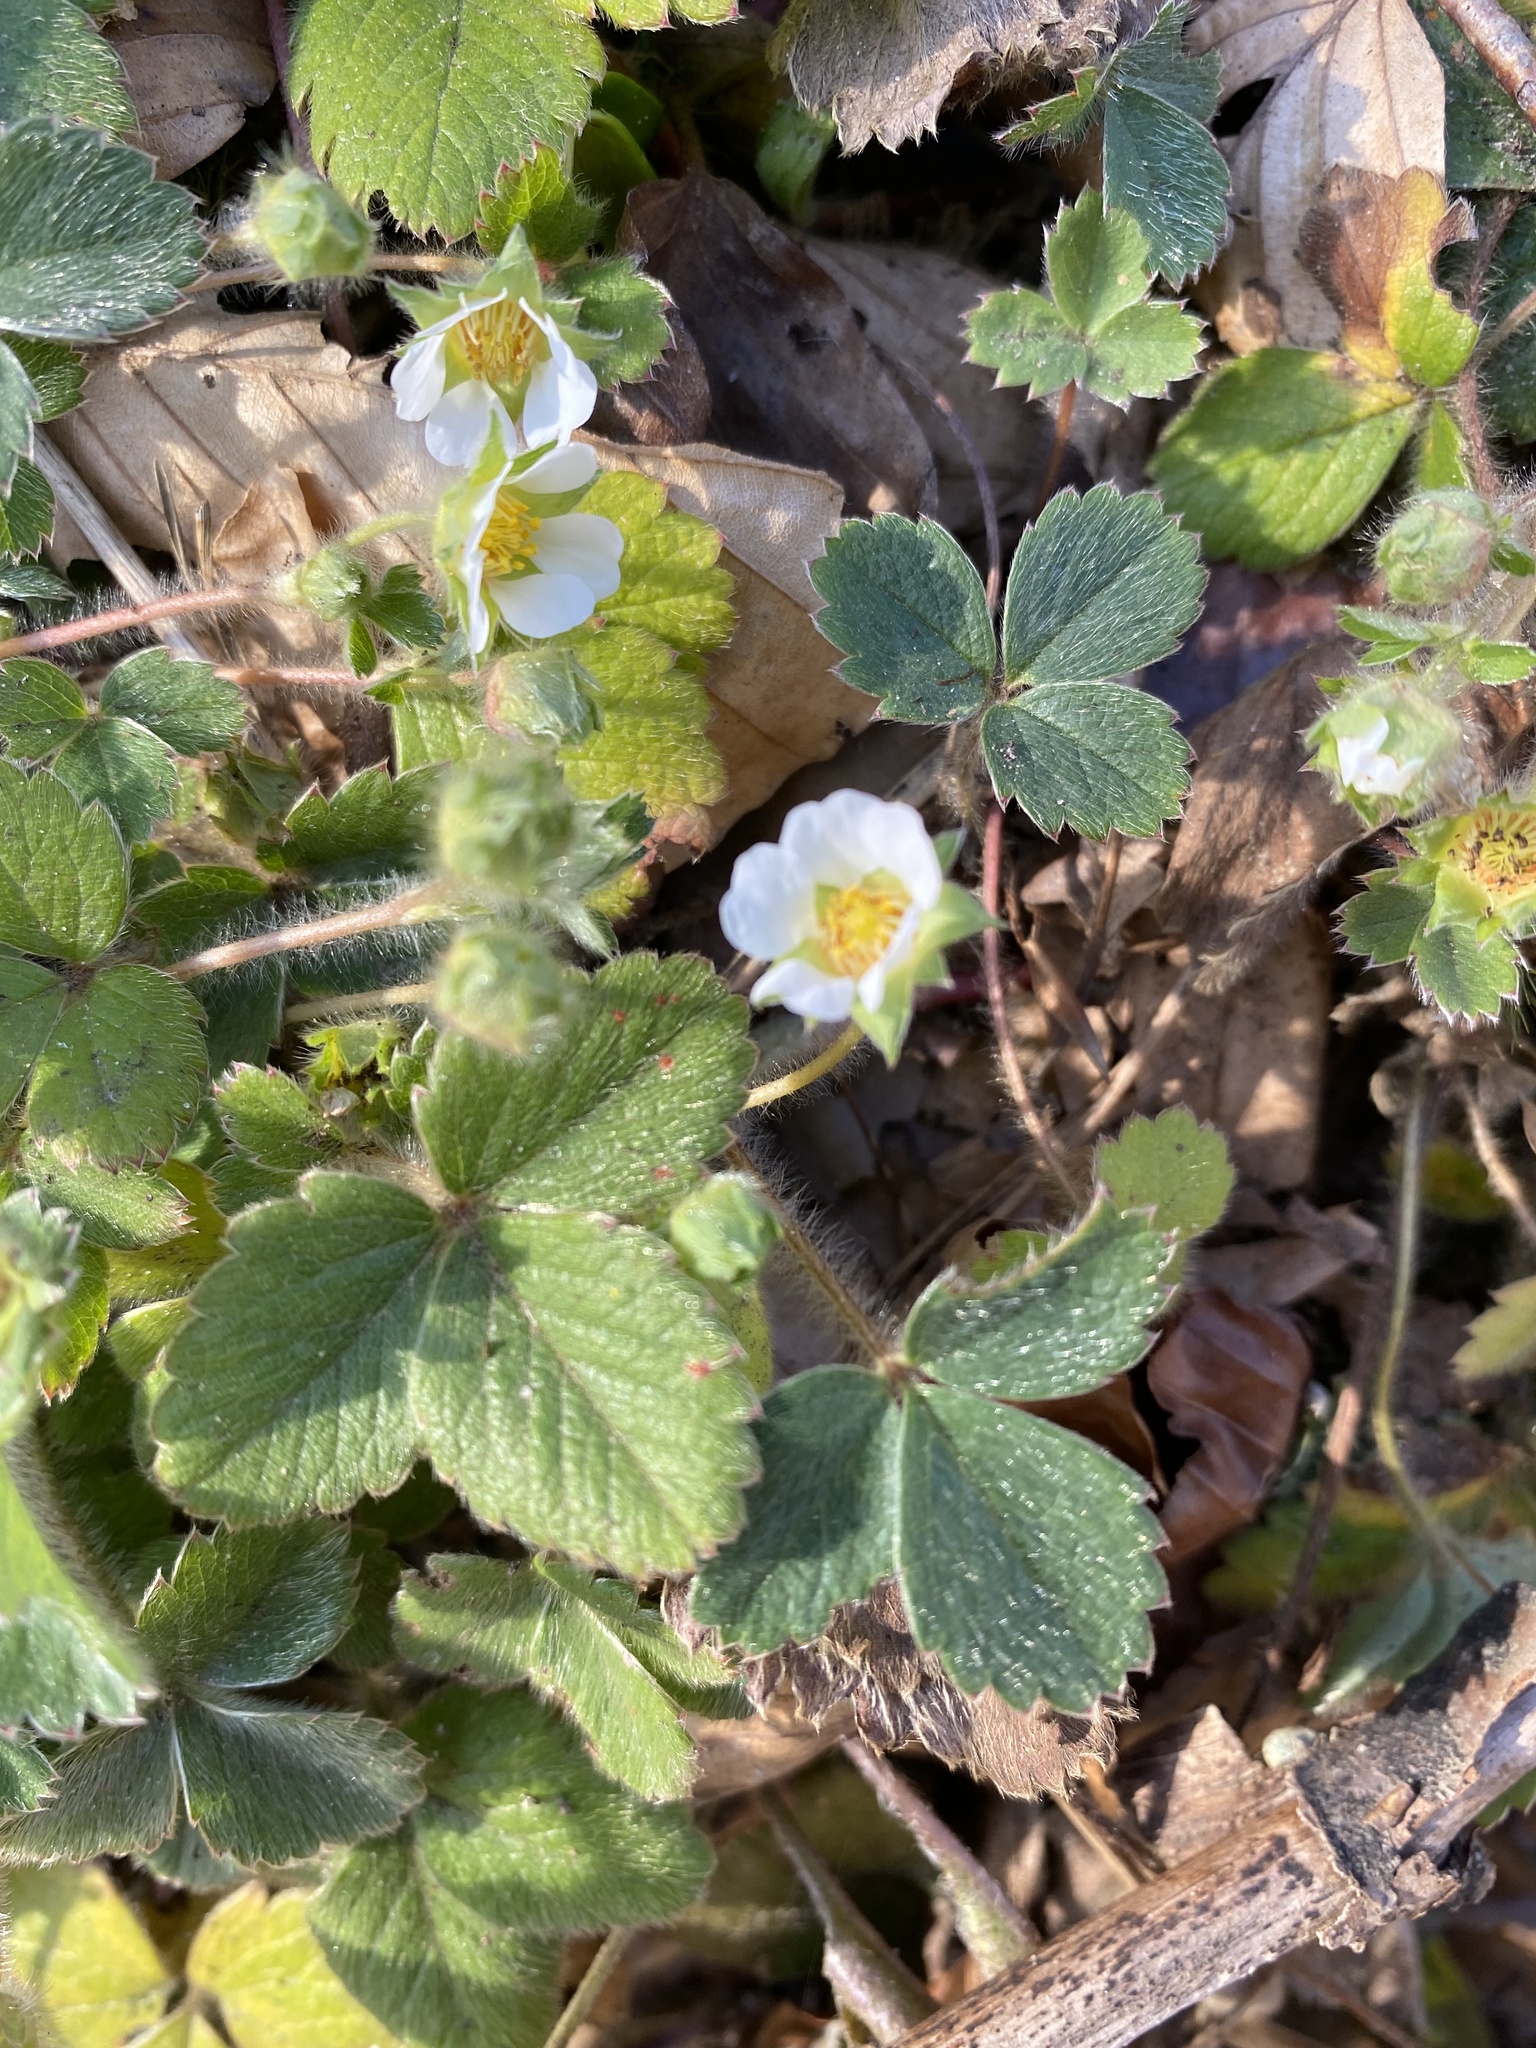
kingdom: Plantae
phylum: Tracheophyta
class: Magnoliopsida
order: Rosales
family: Rosaceae
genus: Potentilla
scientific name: Potentilla sterilis
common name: Barren strawberry
